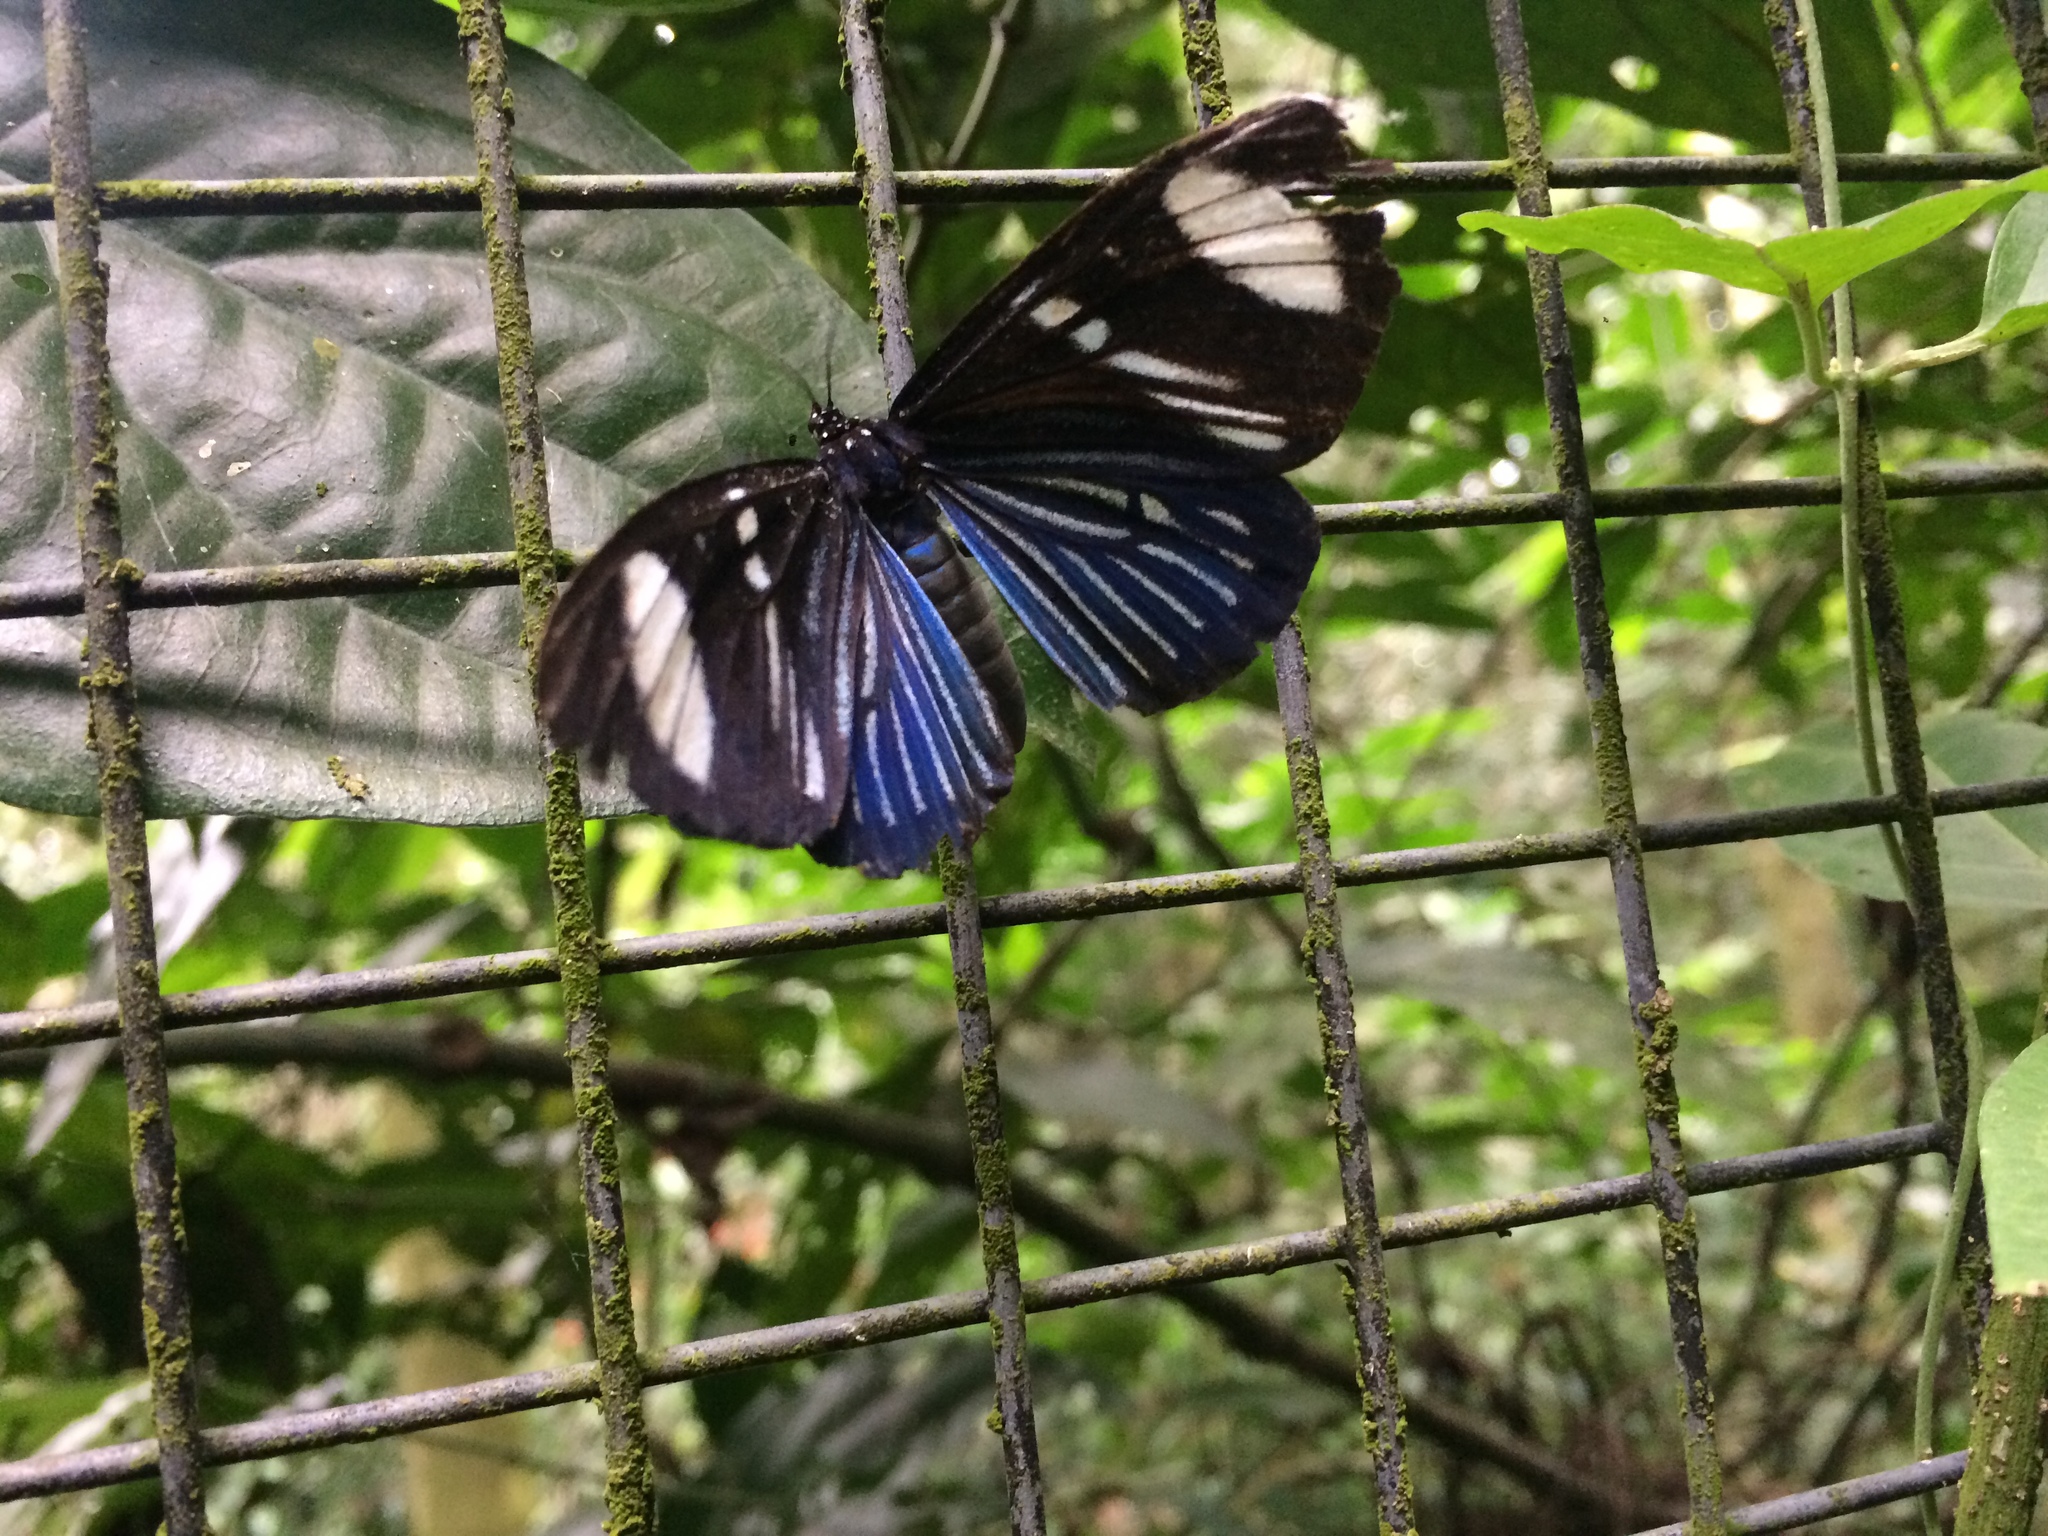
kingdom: Animalia
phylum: Arthropoda
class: Insecta
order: Lepidoptera
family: Erebidae
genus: Hypocrita
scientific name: Hypocrita
